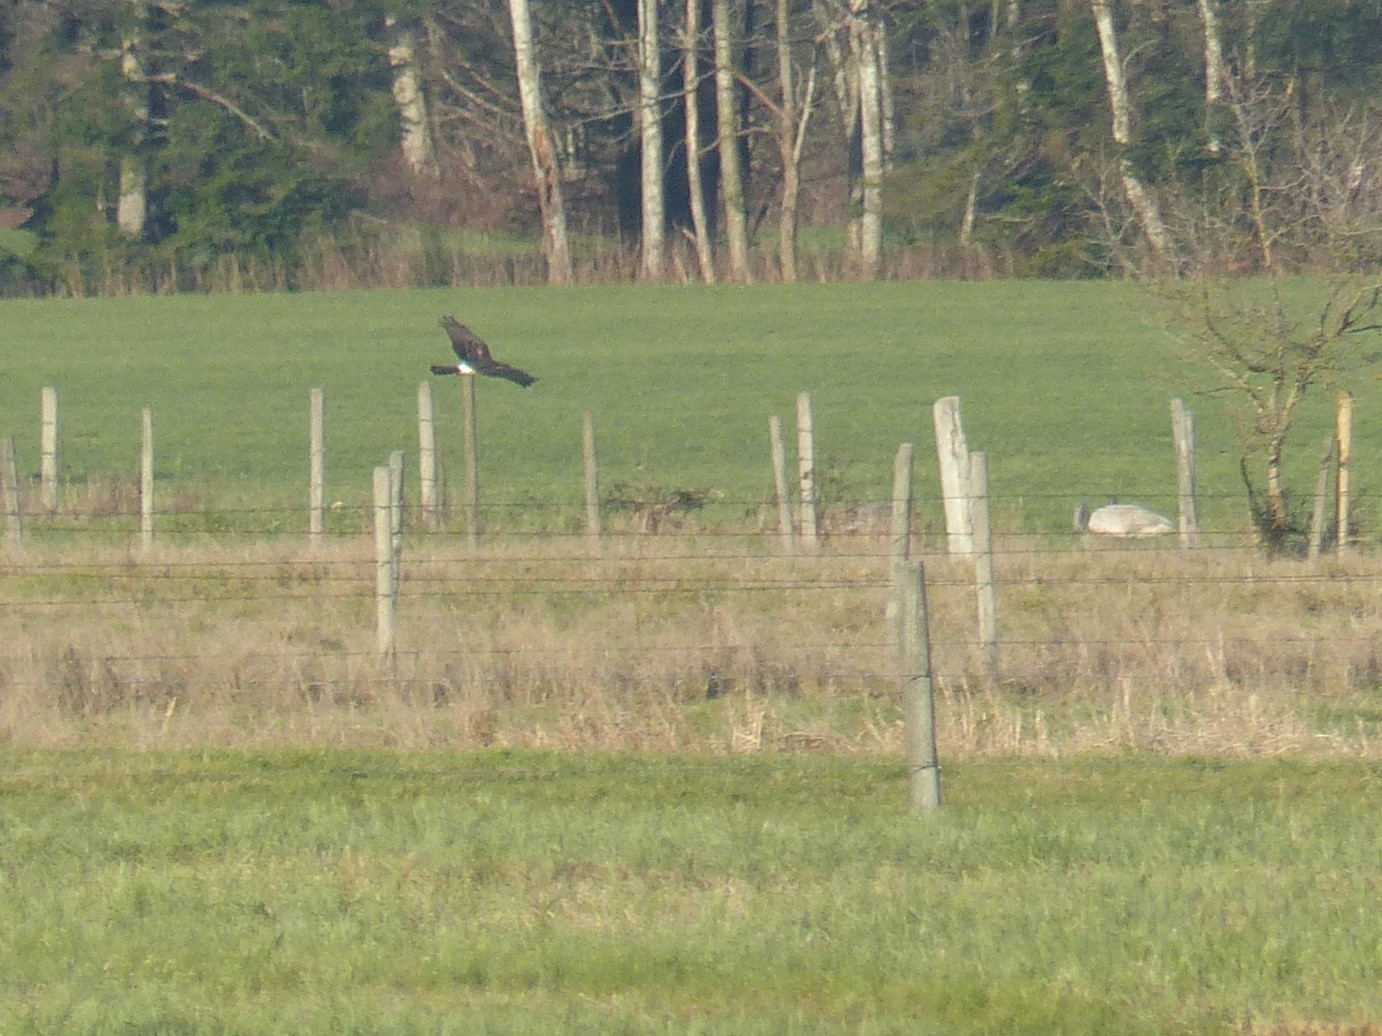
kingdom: Animalia
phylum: Chordata
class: Aves
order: Accipitriformes
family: Accipitridae
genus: Circus
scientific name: Circus cyaneus
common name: Hen harrier
